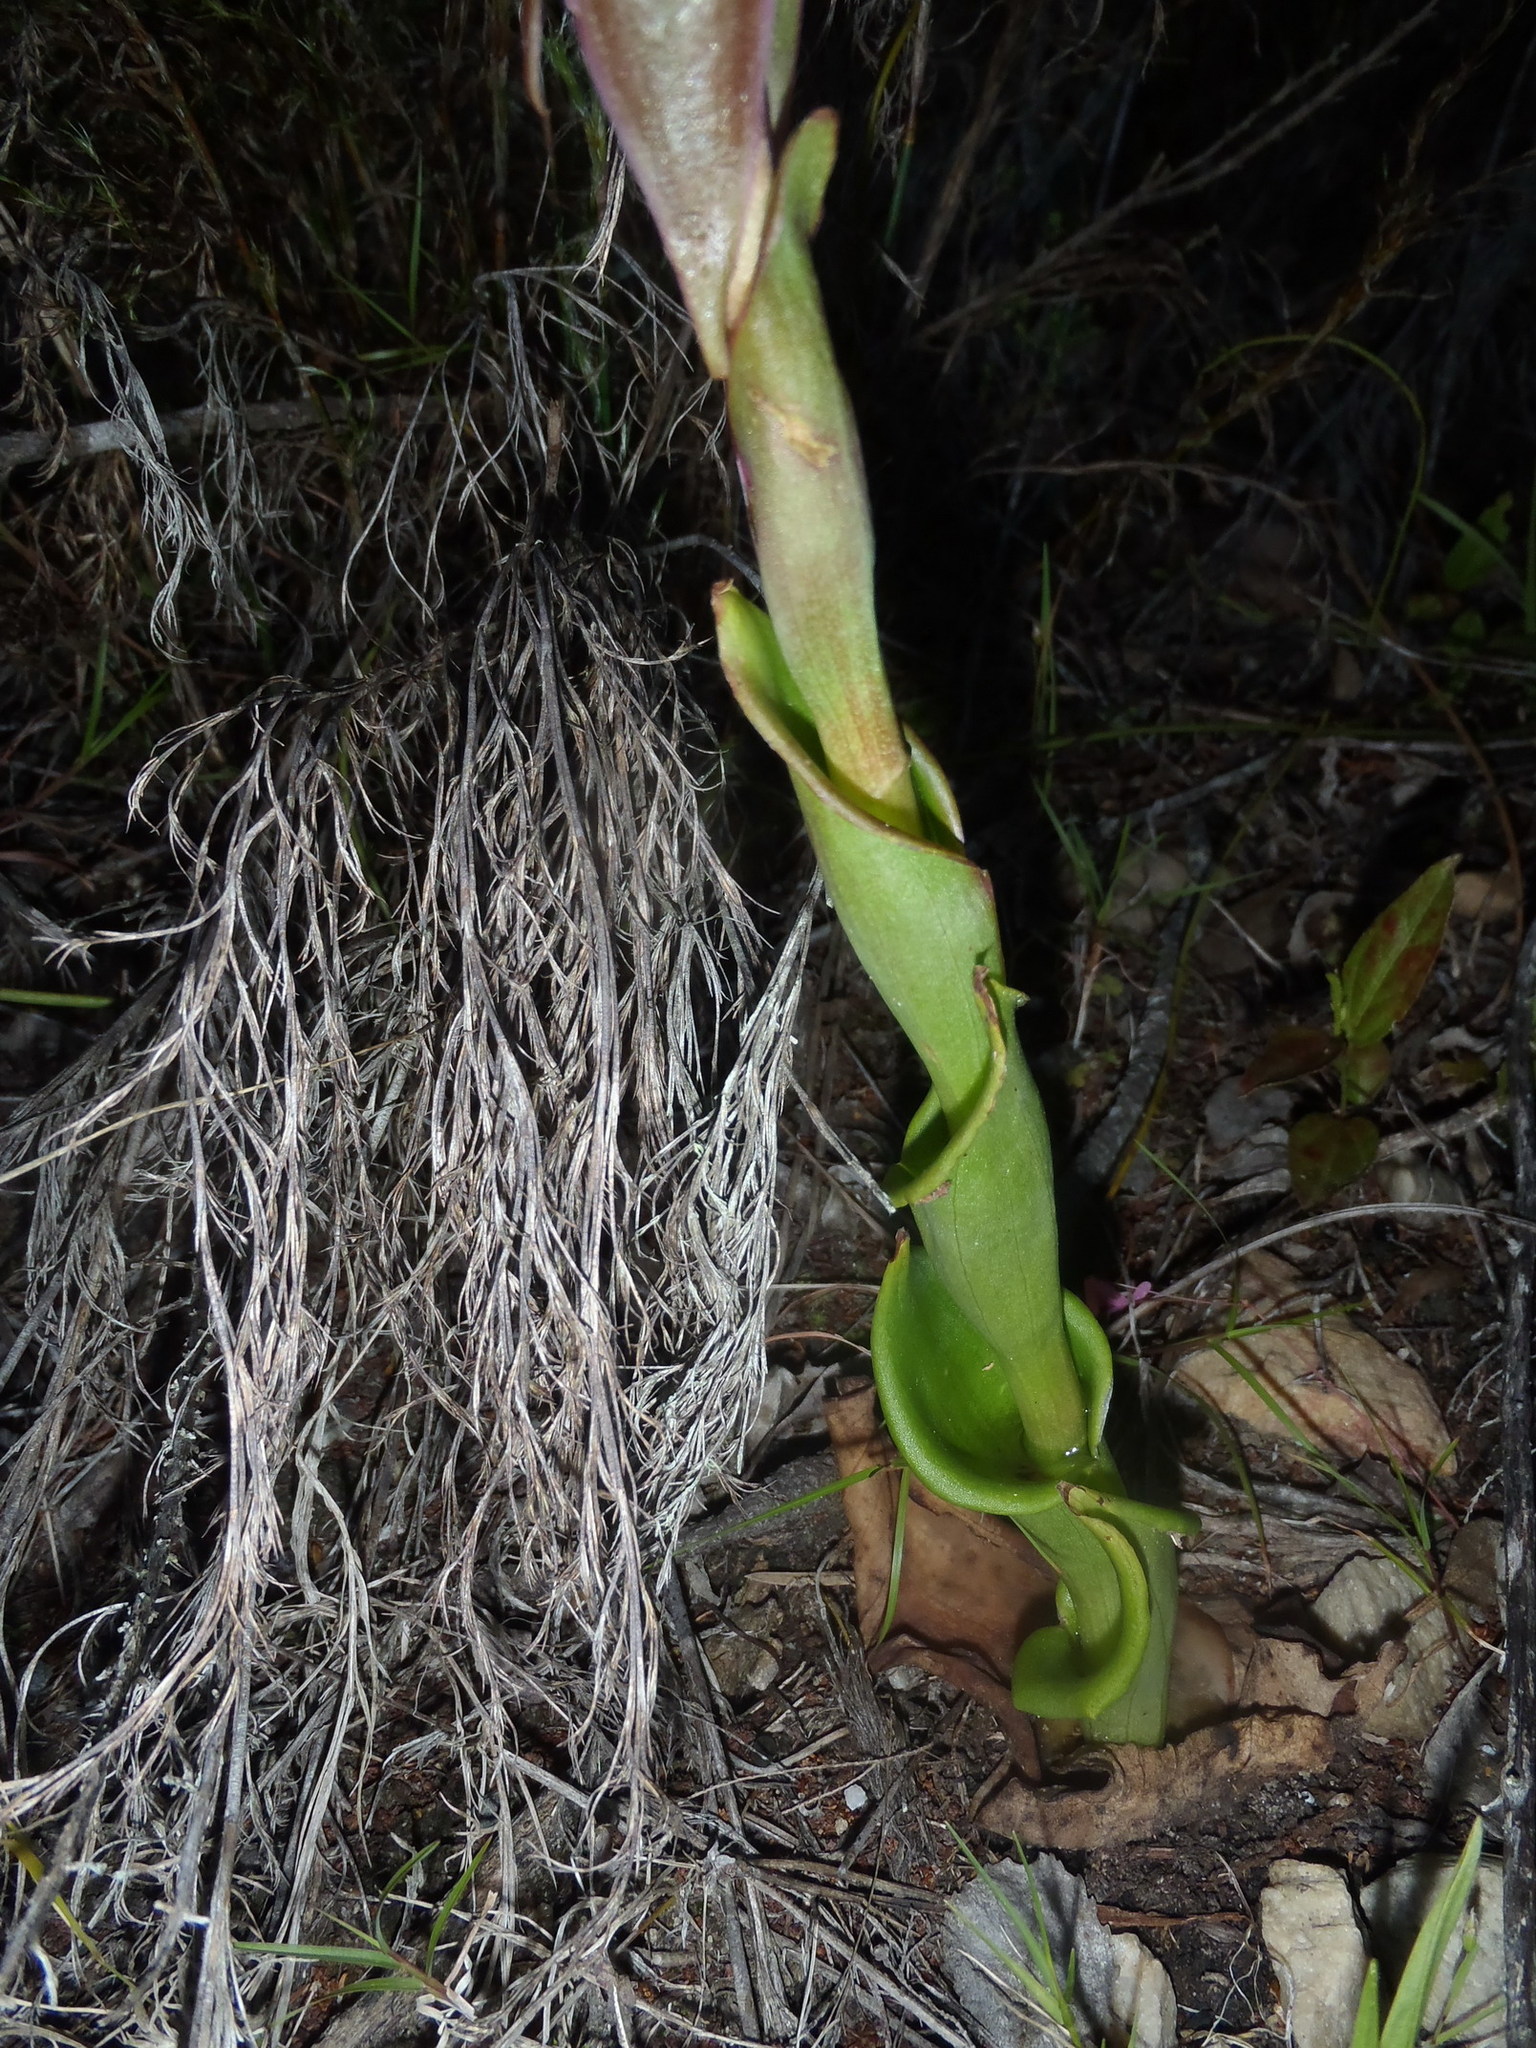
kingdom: Plantae
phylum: Tracheophyta
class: Liliopsida
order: Asparagales
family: Orchidaceae
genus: Satyrium
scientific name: Satyrium acuminatum
